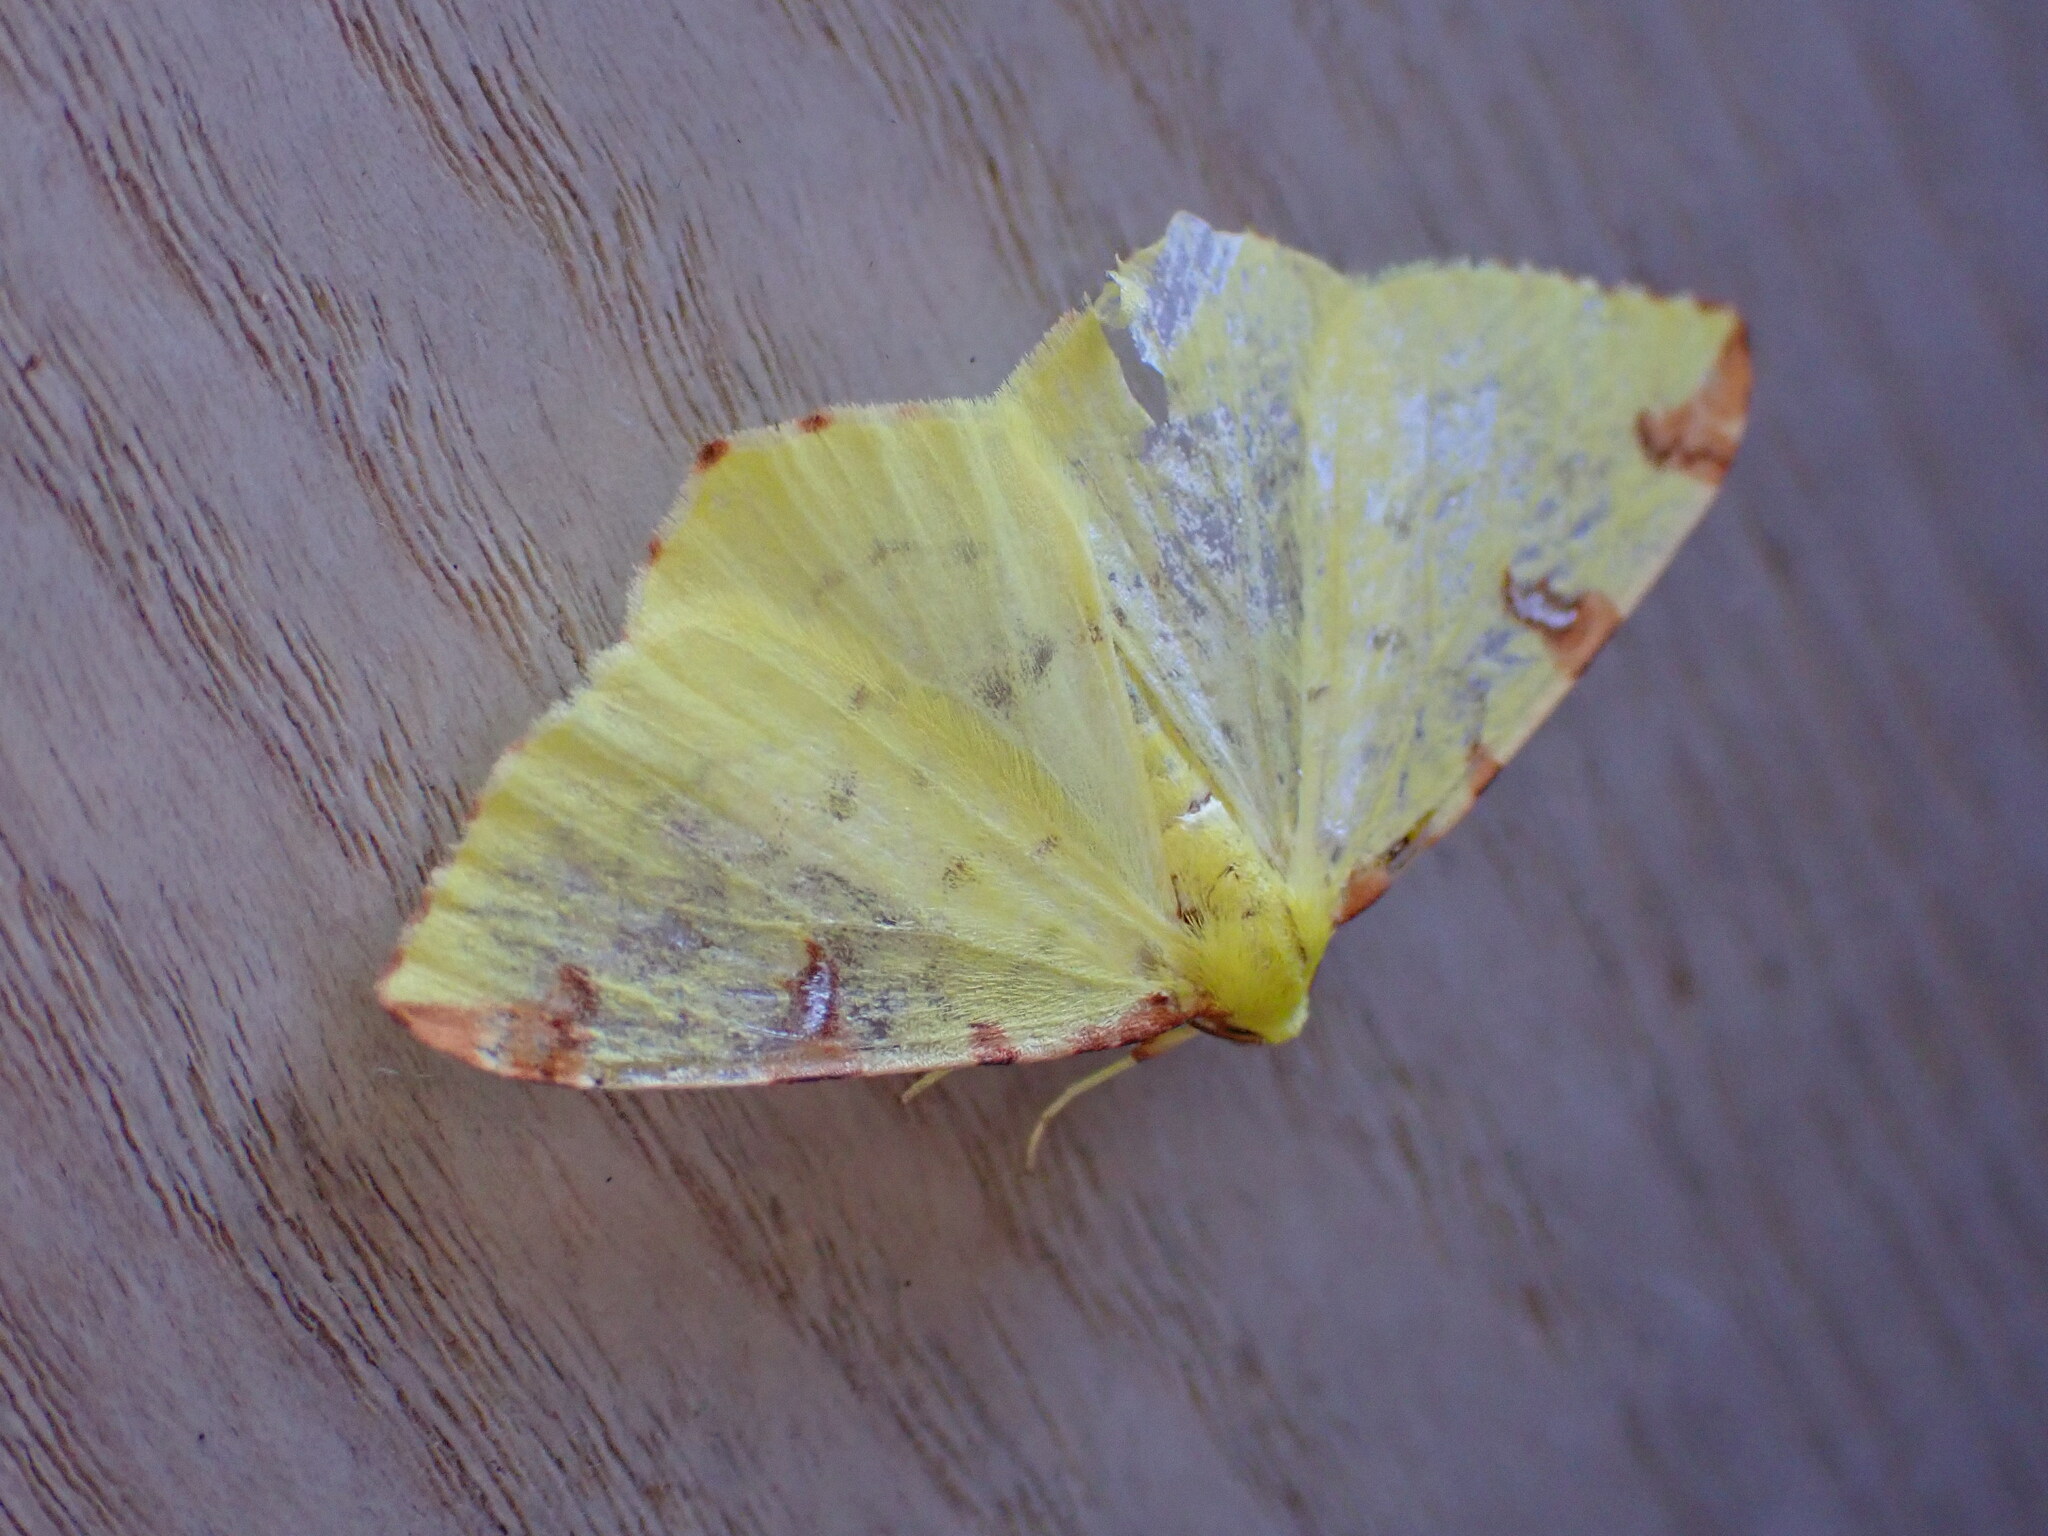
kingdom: Animalia
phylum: Arthropoda
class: Insecta
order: Lepidoptera
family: Geometridae
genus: Opisthograptis
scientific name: Opisthograptis luteolata
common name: Brimstone moth
